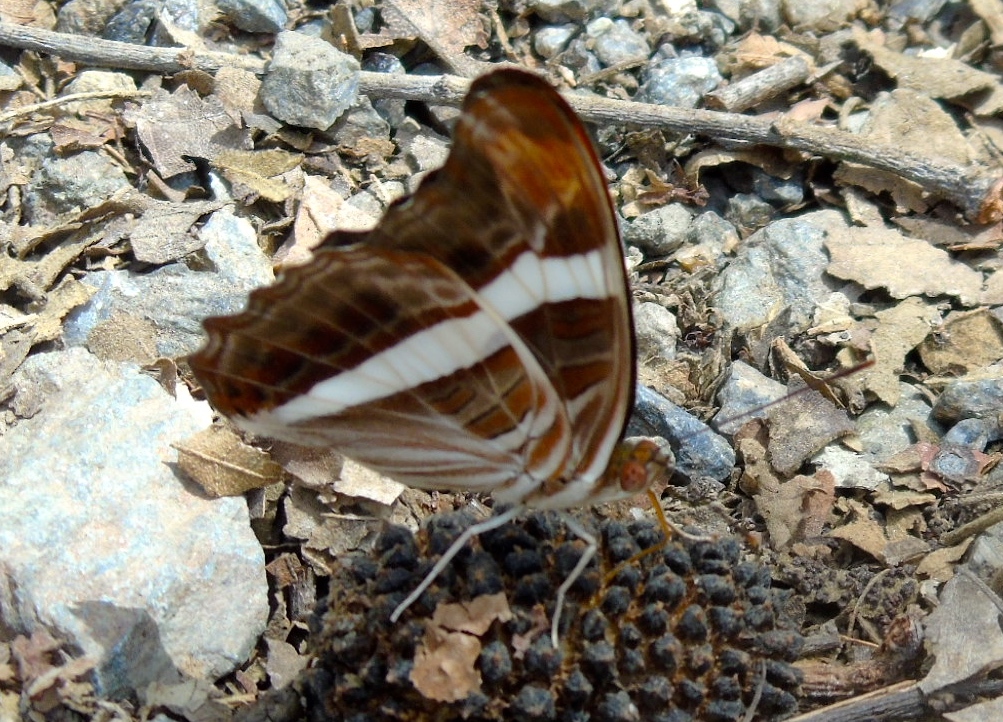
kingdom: Animalia
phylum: Arthropoda
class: Insecta
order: Lepidoptera
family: Nymphalidae
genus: Limenitis
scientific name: Limenitis fessonia
